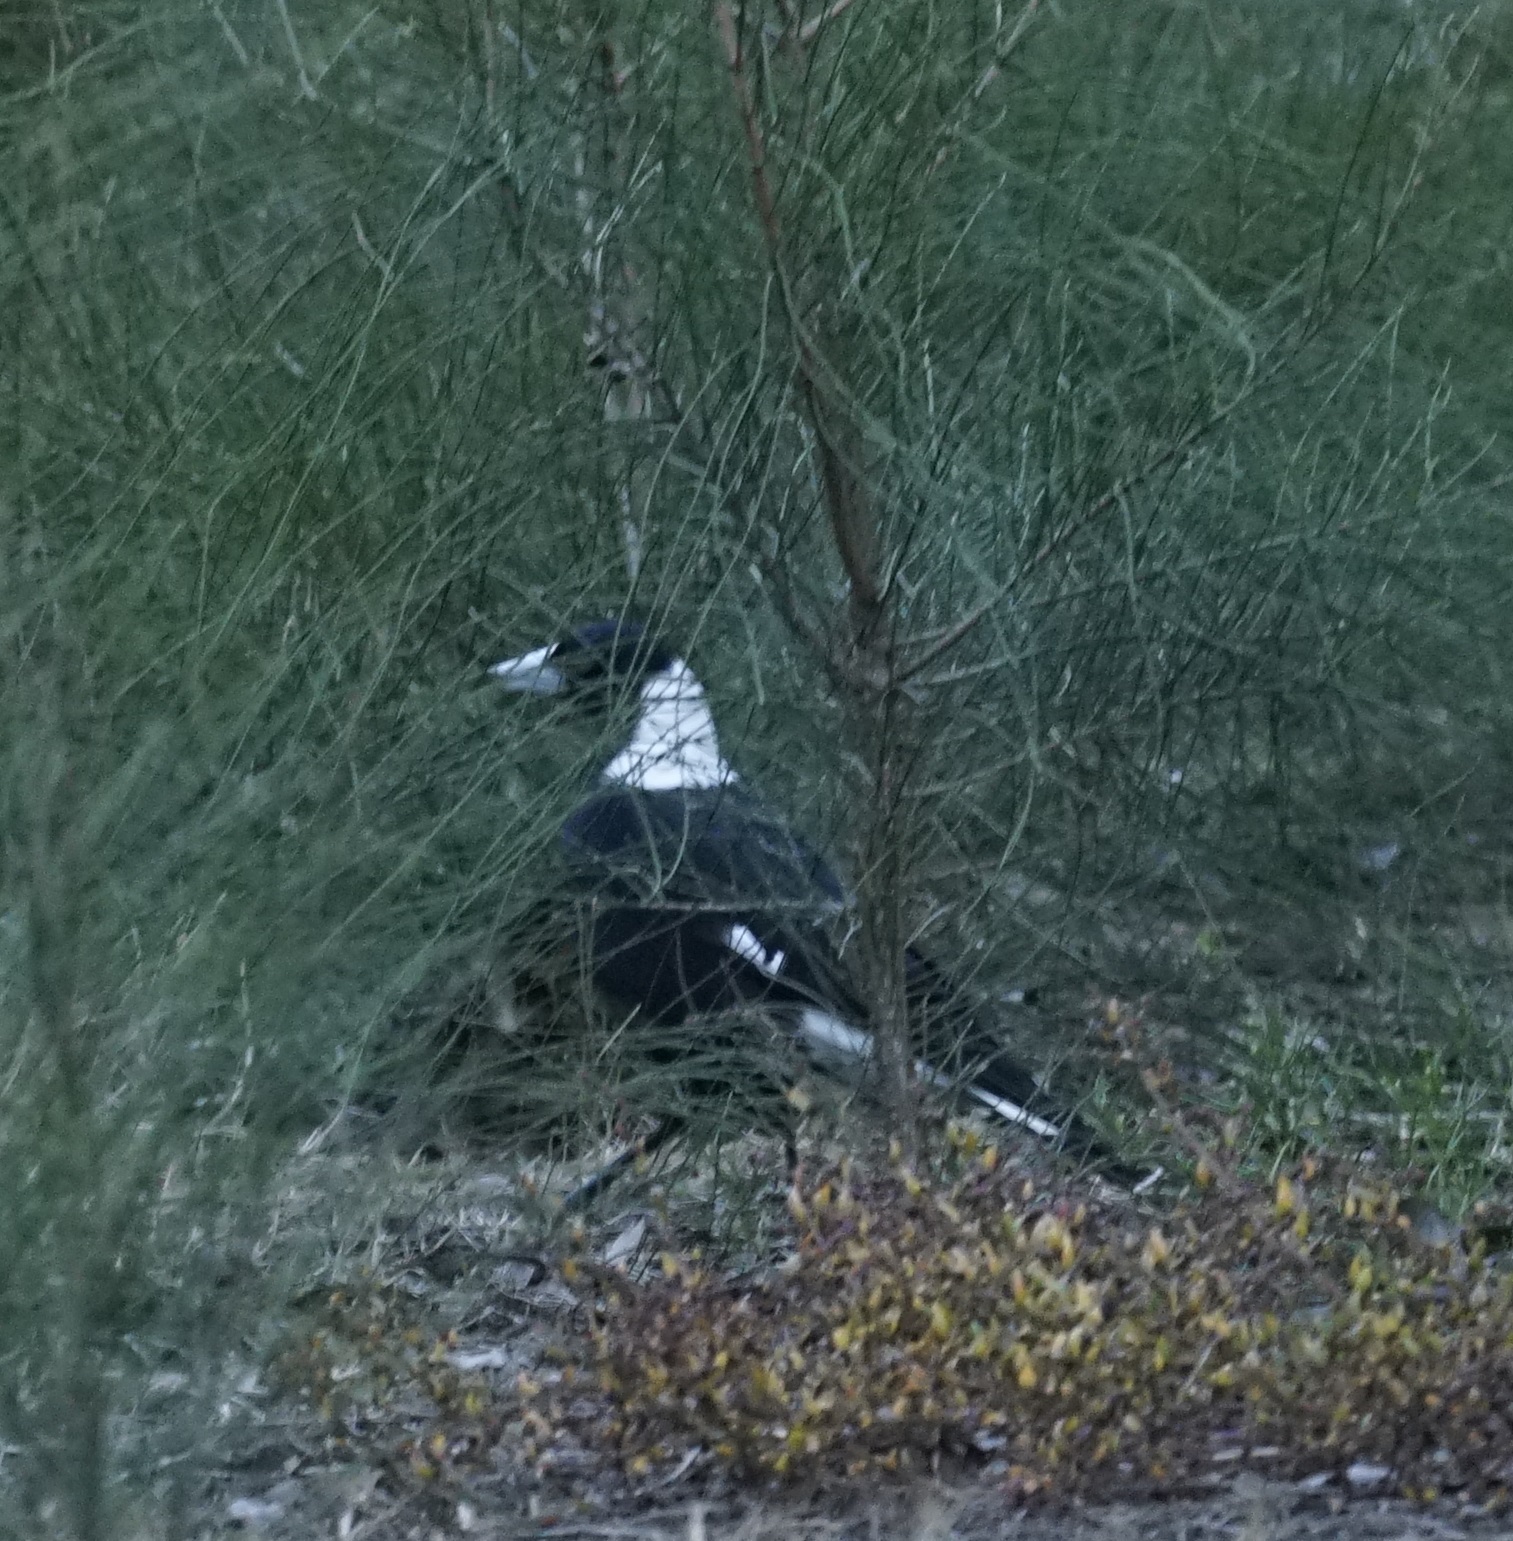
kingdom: Animalia
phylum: Chordata
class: Aves
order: Passeriformes
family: Cracticidae
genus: Gymnorhina
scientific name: Gymnorhina tibicen
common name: Australian magpie
